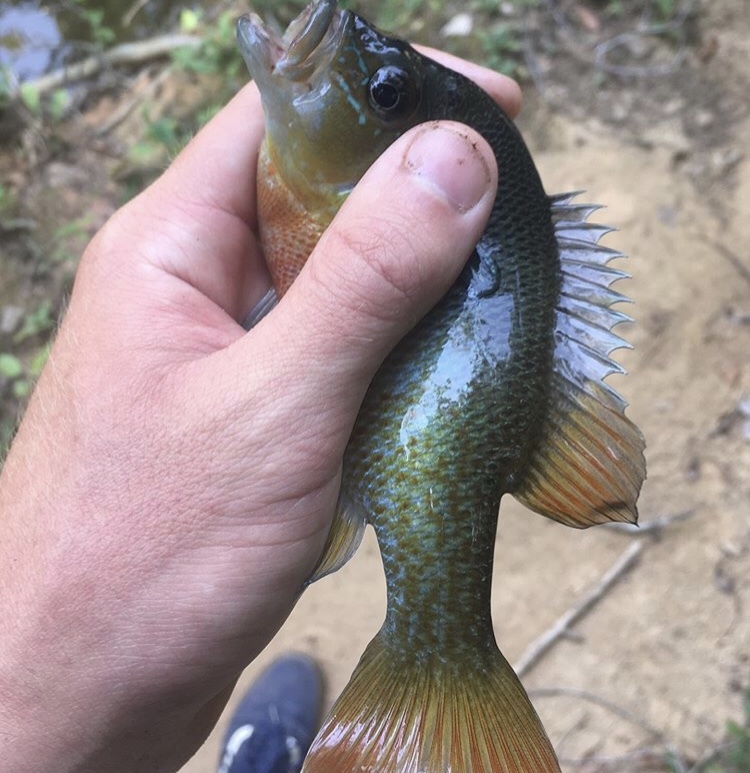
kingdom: Animalia
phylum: Chordata
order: Perciformes
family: Centrarchidae
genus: Lepomis
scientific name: Lepomis auritus
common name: Redbreast sunfish
